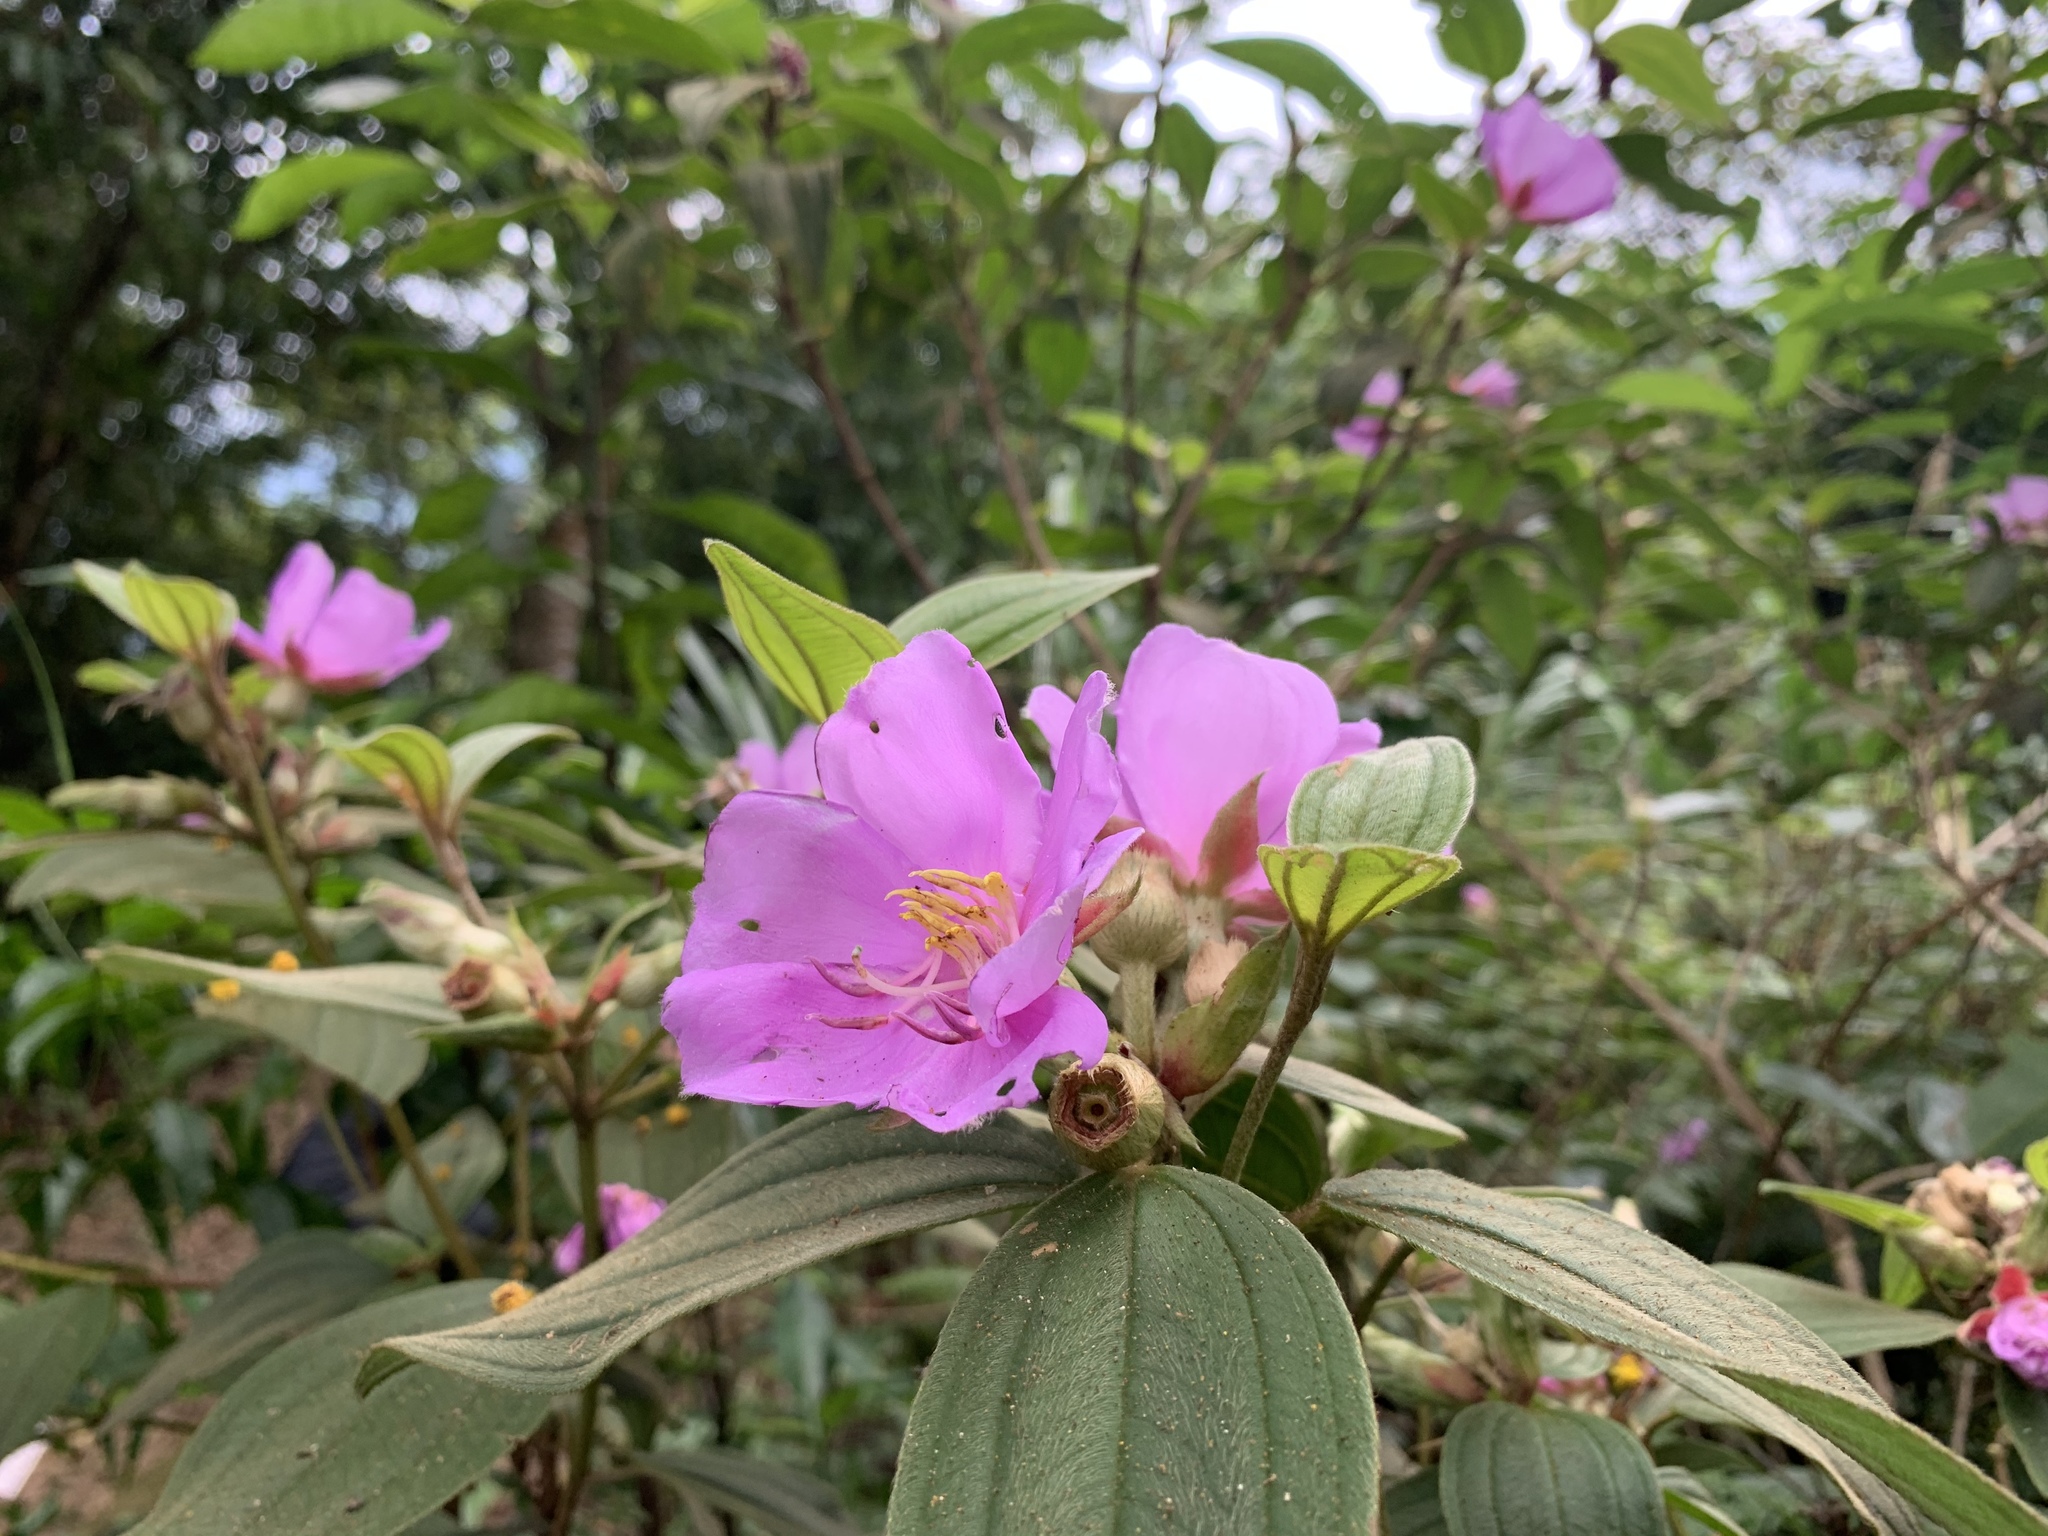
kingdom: Plantae
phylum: Tracheophyta
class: Magnoliopsida
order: Myrtales
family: Melastomataceae
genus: Melastoma
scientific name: Melastoma malabathricum
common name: Indian-rhododendron
